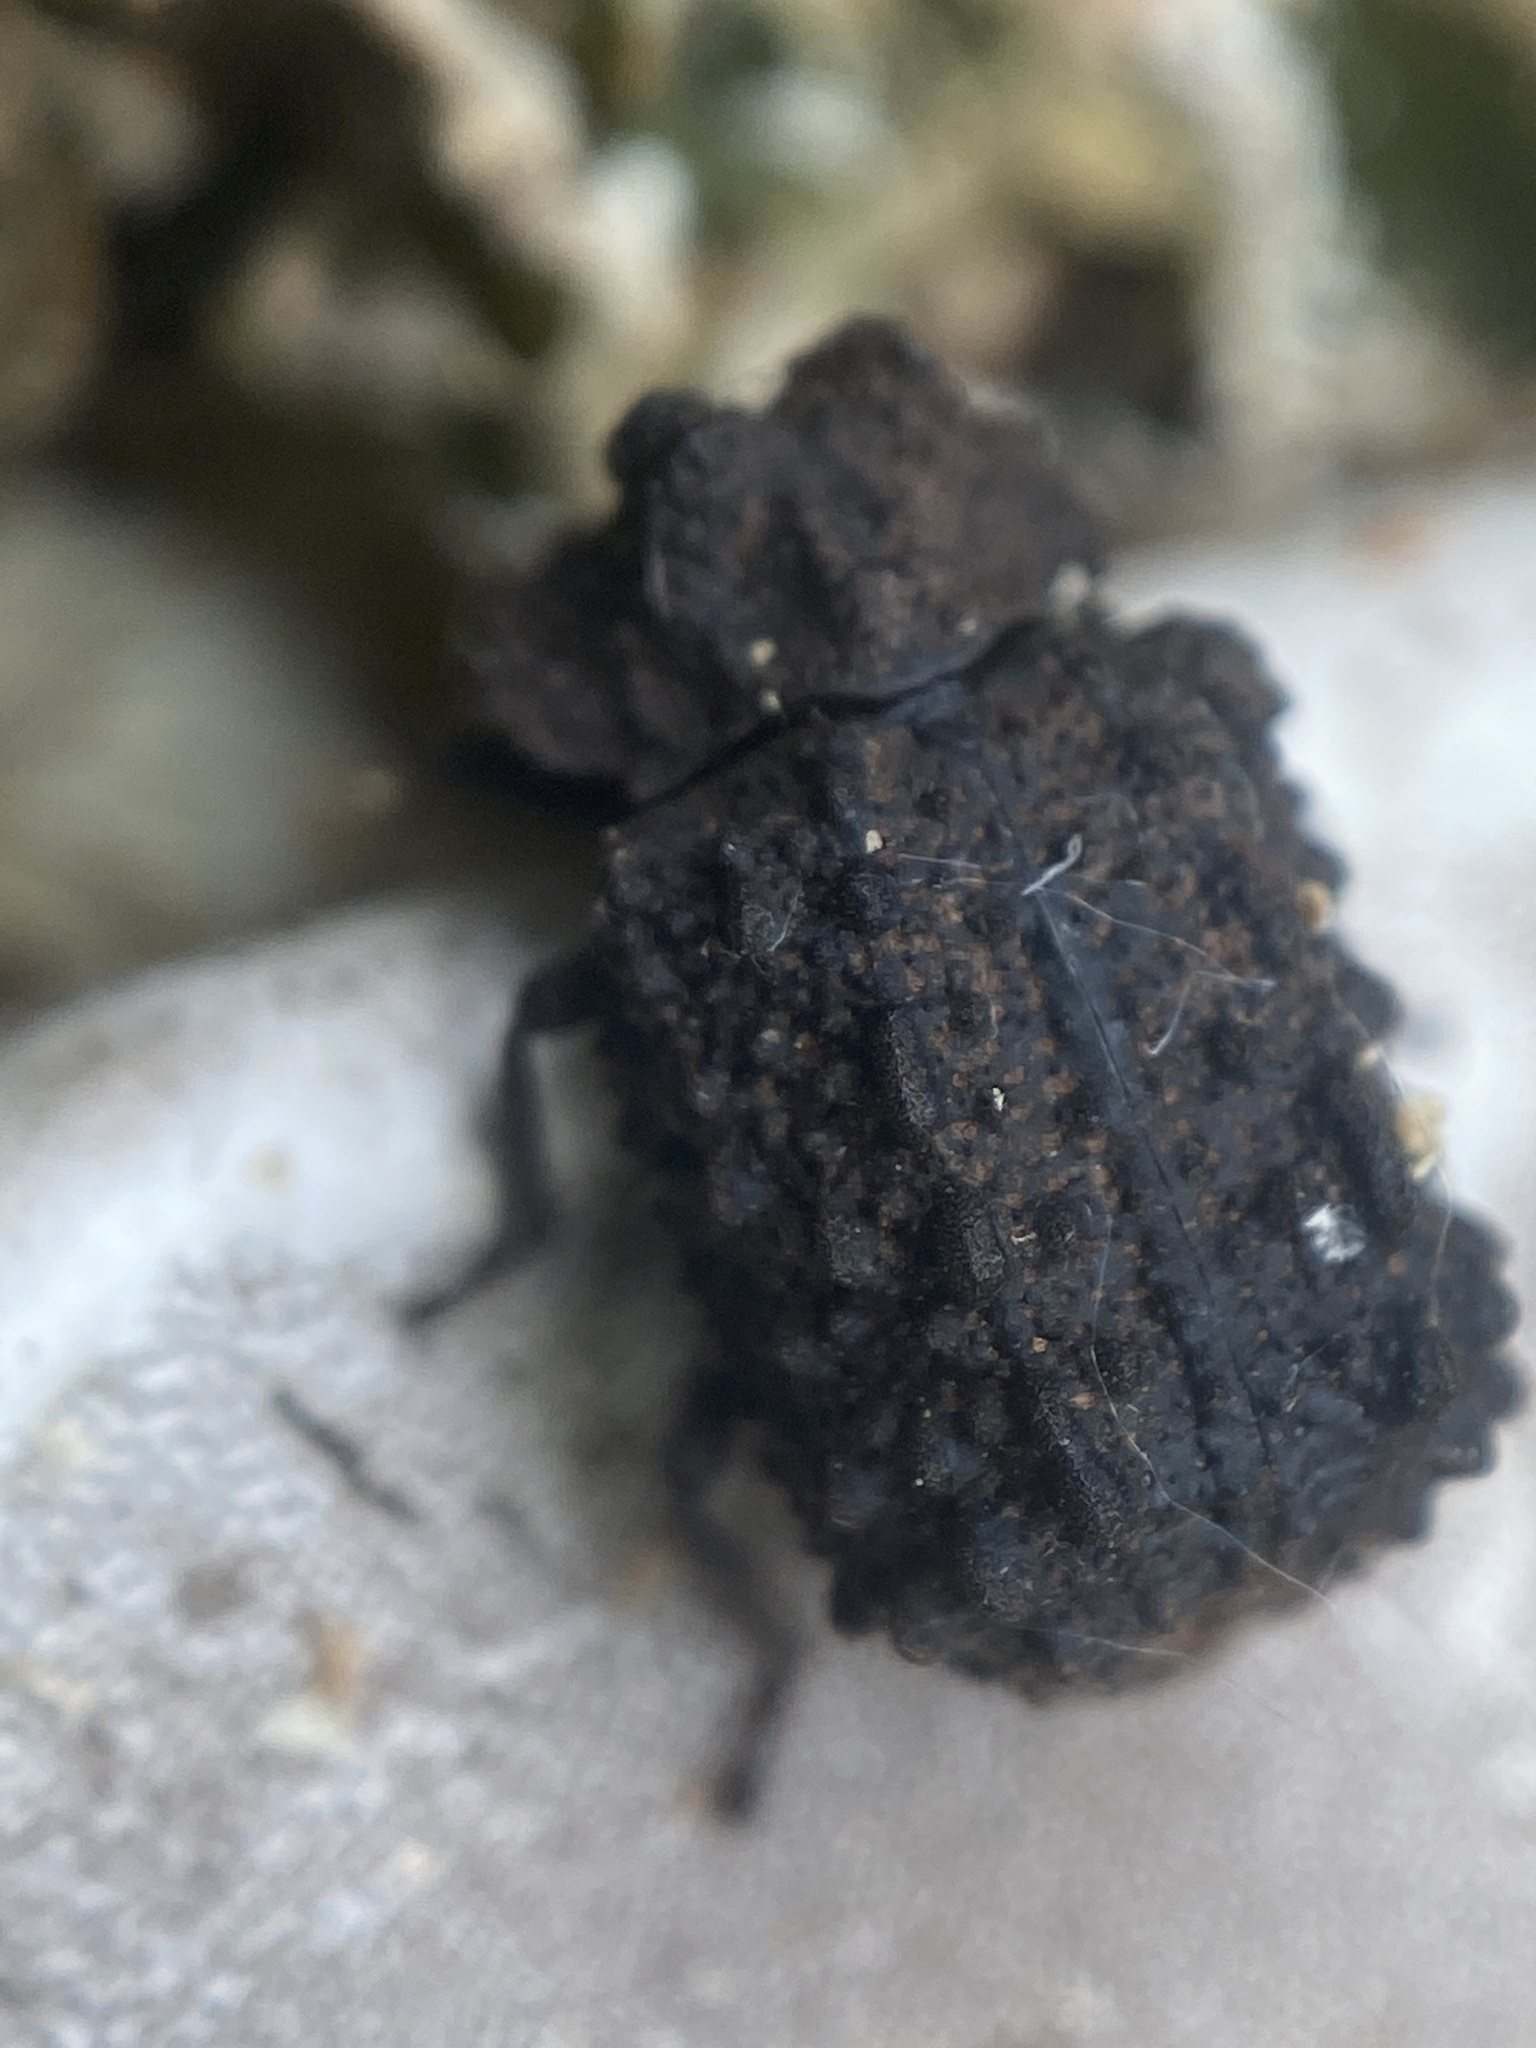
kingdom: Animalia
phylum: Arthropoda
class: Insecta
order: Coleoptera
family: Tenebrionidae
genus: Gnatocerus
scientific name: Gnatocerus cornutus
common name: Broad-horned flour beetle
